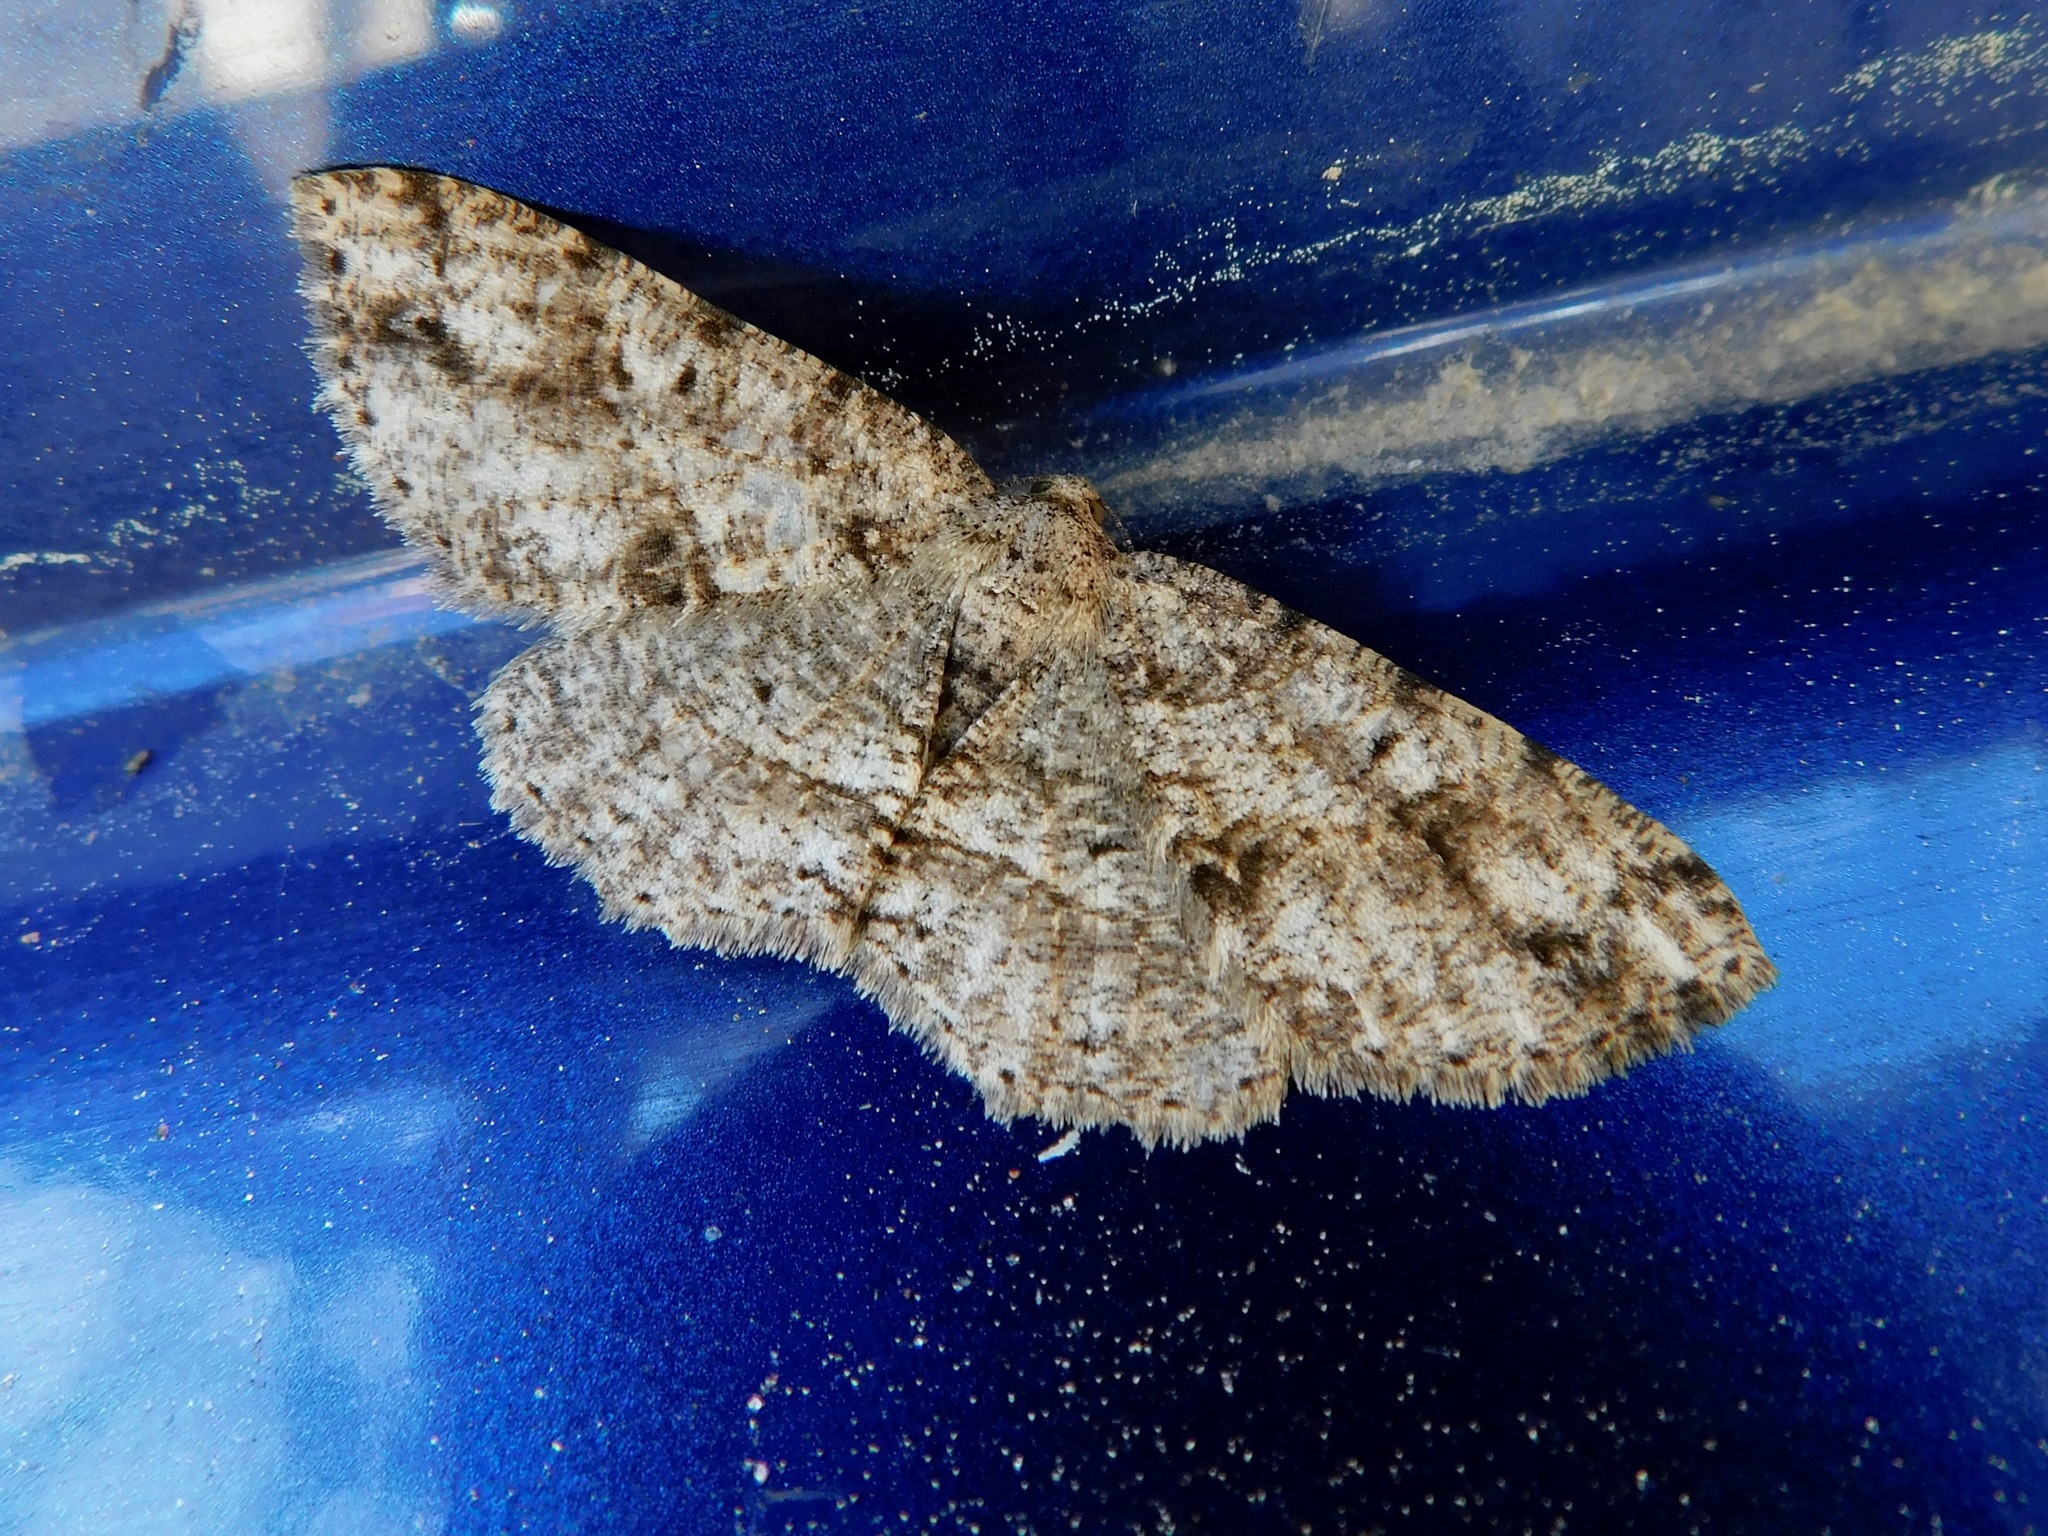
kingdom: Animalia
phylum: Arthropoda
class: Insecta
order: Lepidoptera
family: Geometridae
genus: Melanolophia
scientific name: Melanolophia canadaria
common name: Canadian melanolophia
